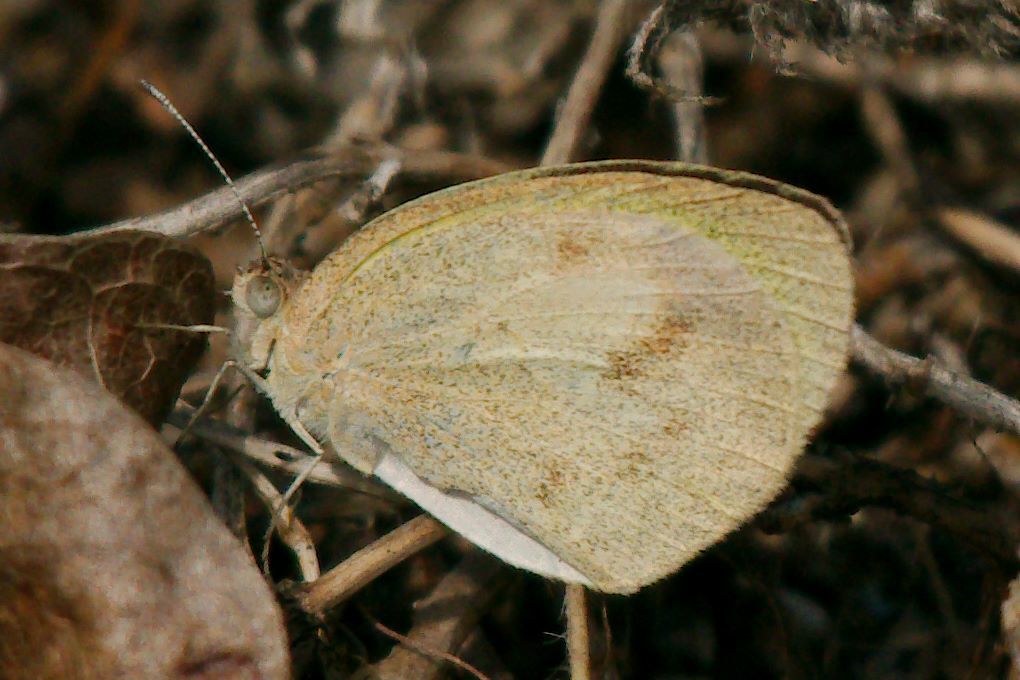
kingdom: Animalia
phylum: Arthropoda
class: Insecta
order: Lepidoptera
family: Pieridae
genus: Eurema
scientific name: Eurema daira
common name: Barred sulphur
